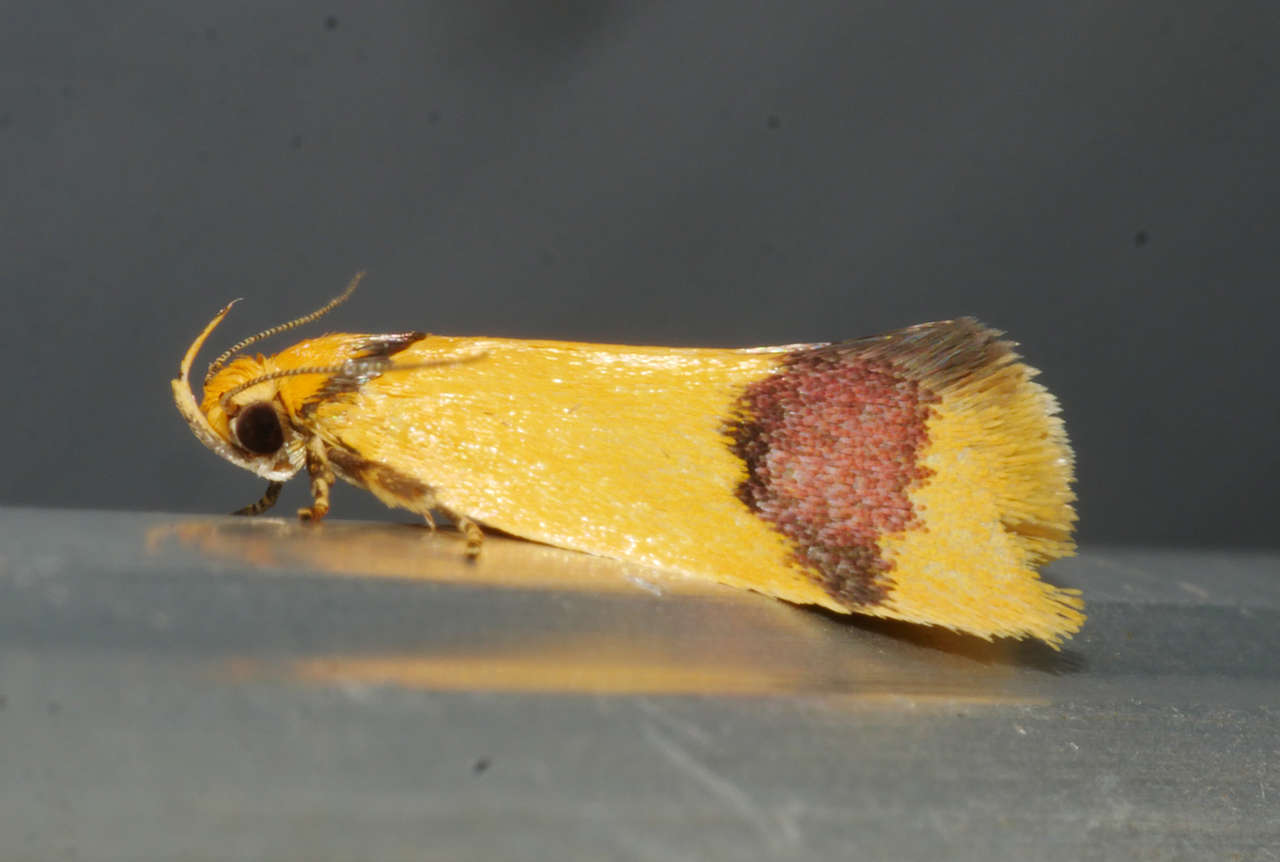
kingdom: Animalia
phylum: Arthropoda
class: Insecta
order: Lepidoptera
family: Oecophoridae
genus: Garrha
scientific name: Garrha zonostola
